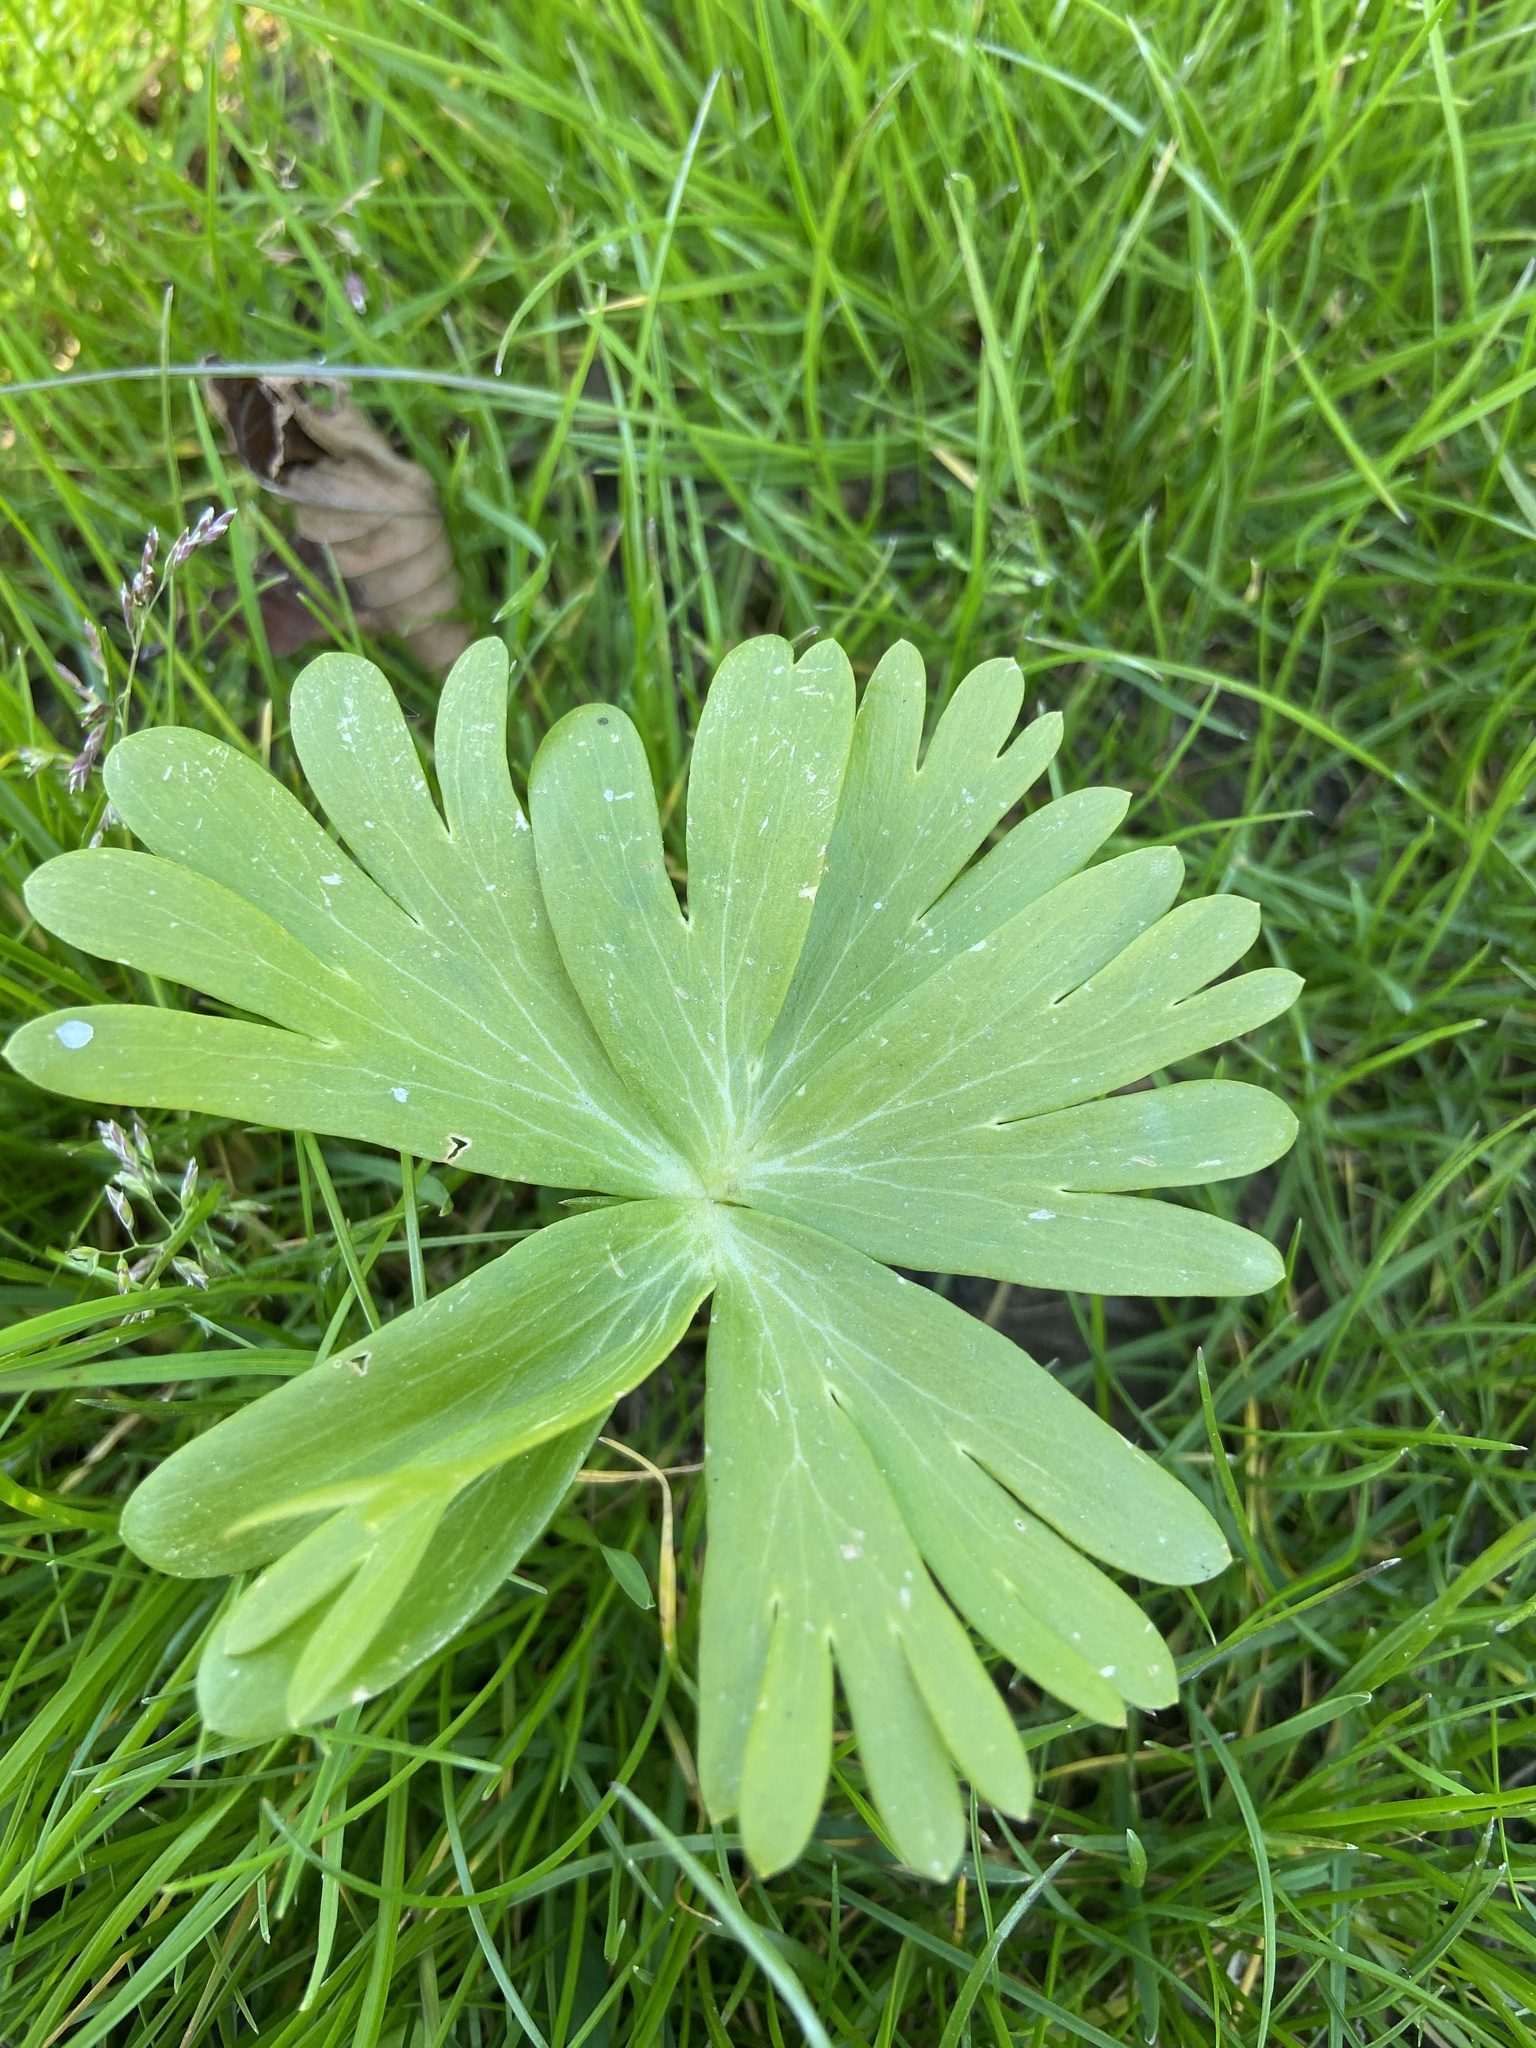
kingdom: Plantae
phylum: Tracheophyta
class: Magnoliopsida
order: Ranunculales
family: Ranunculaceae
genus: Eranthis
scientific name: Eranthis hyemalis
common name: Winter aconite
